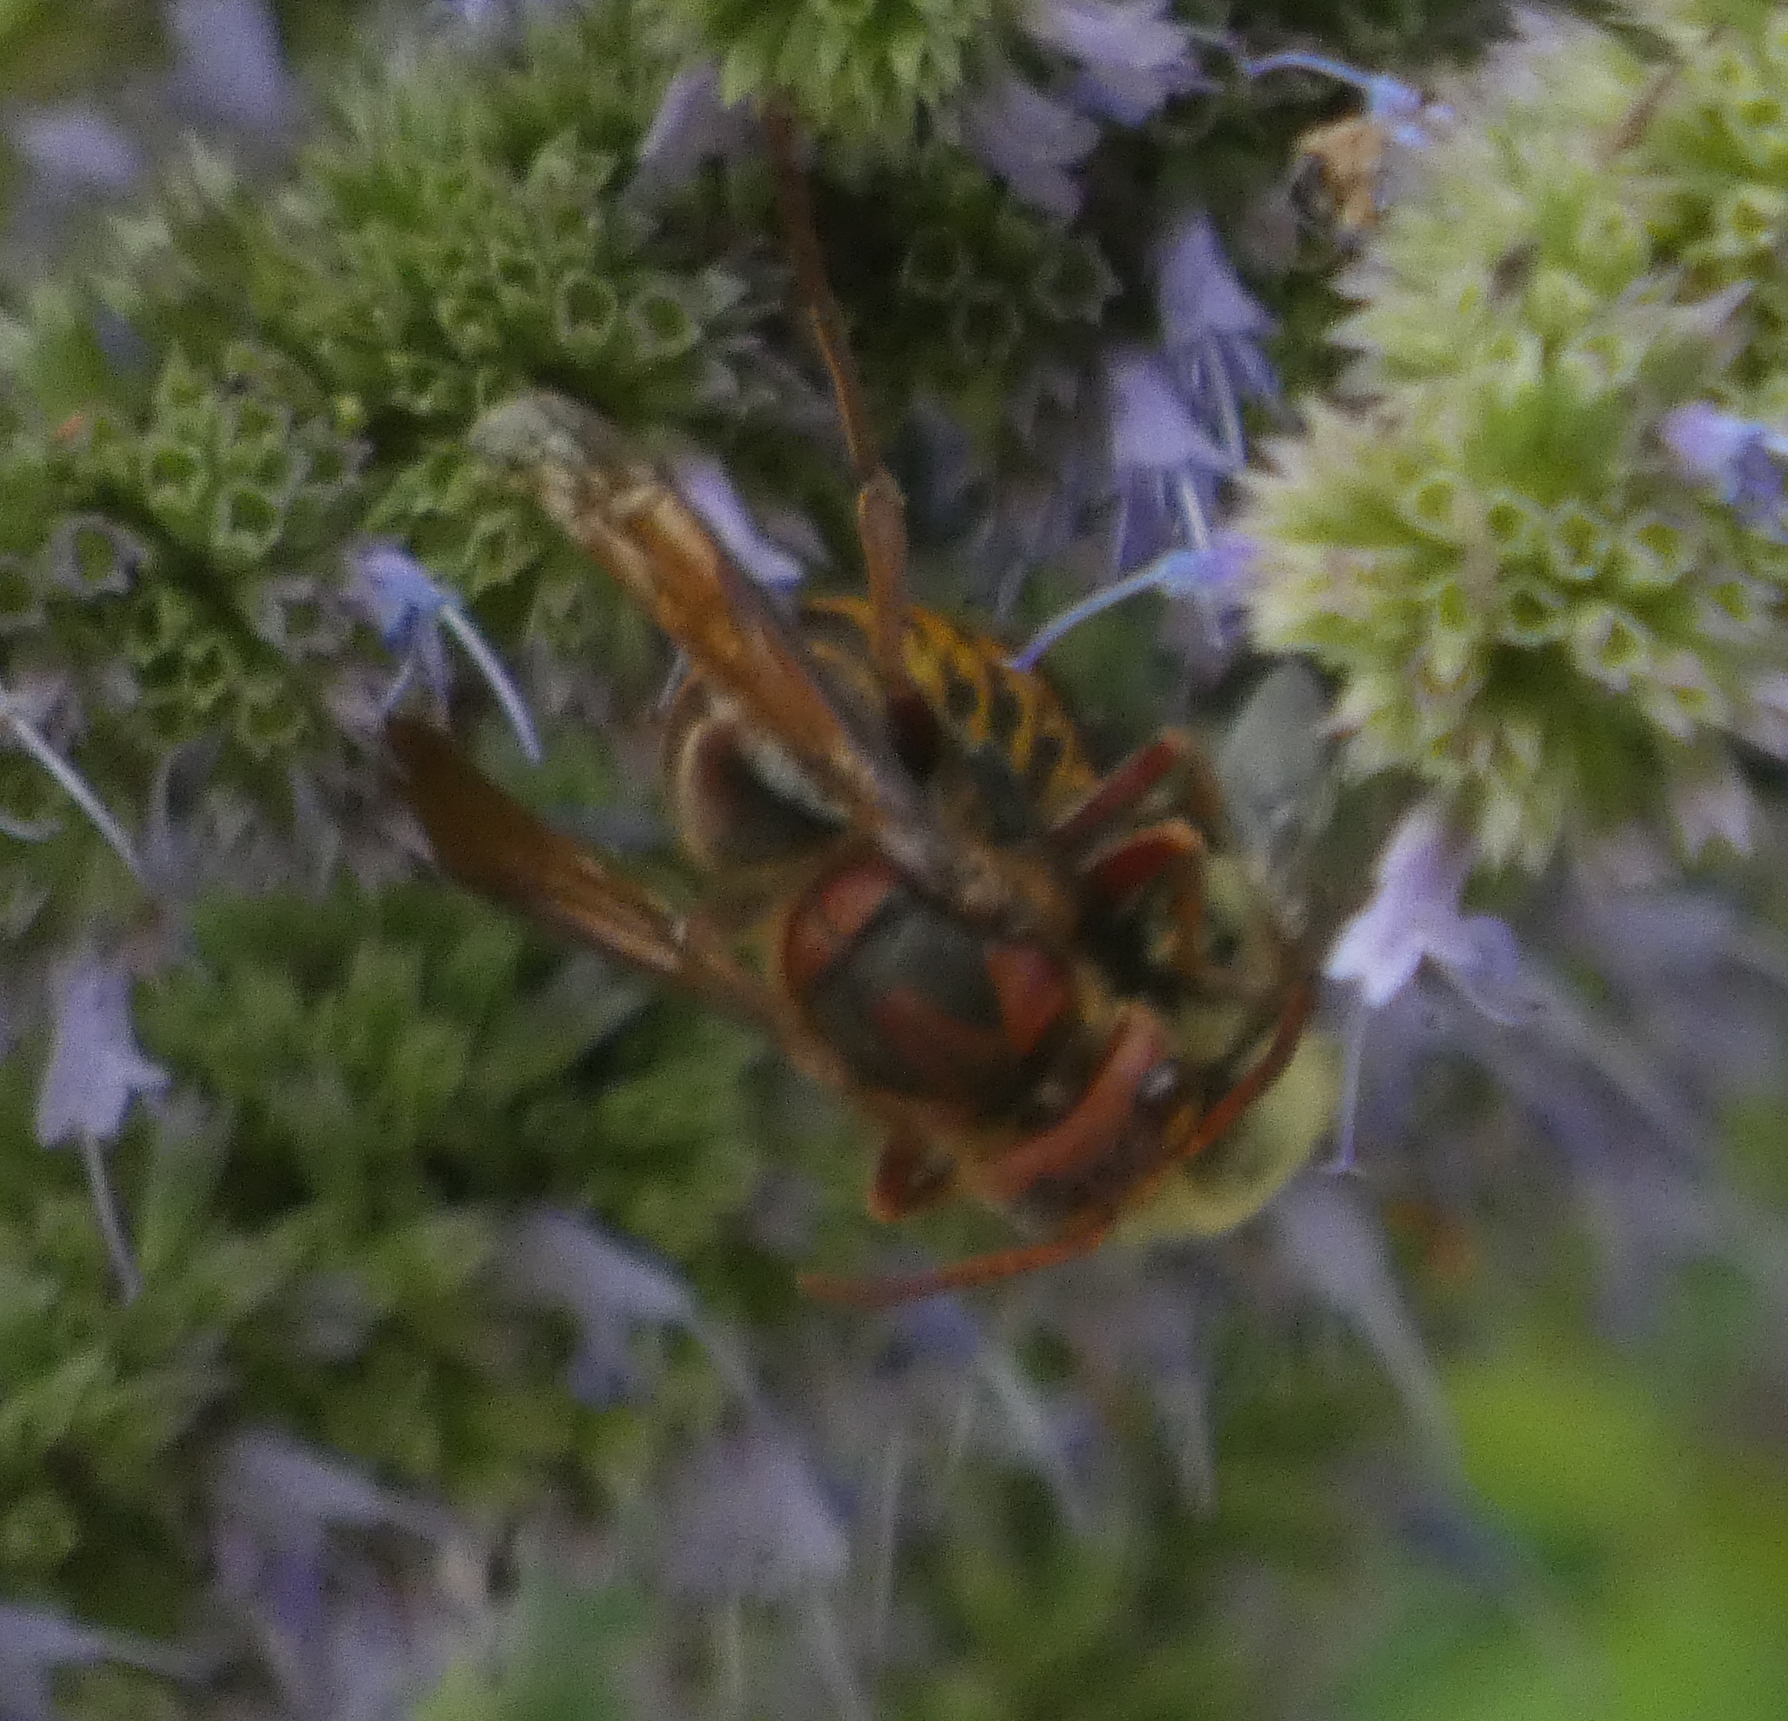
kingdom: Animalia
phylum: Arthropoda
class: Insecta
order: Hymenoptera
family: Vespidae
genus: Vespa
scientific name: Vespa crabro
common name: Hornet
